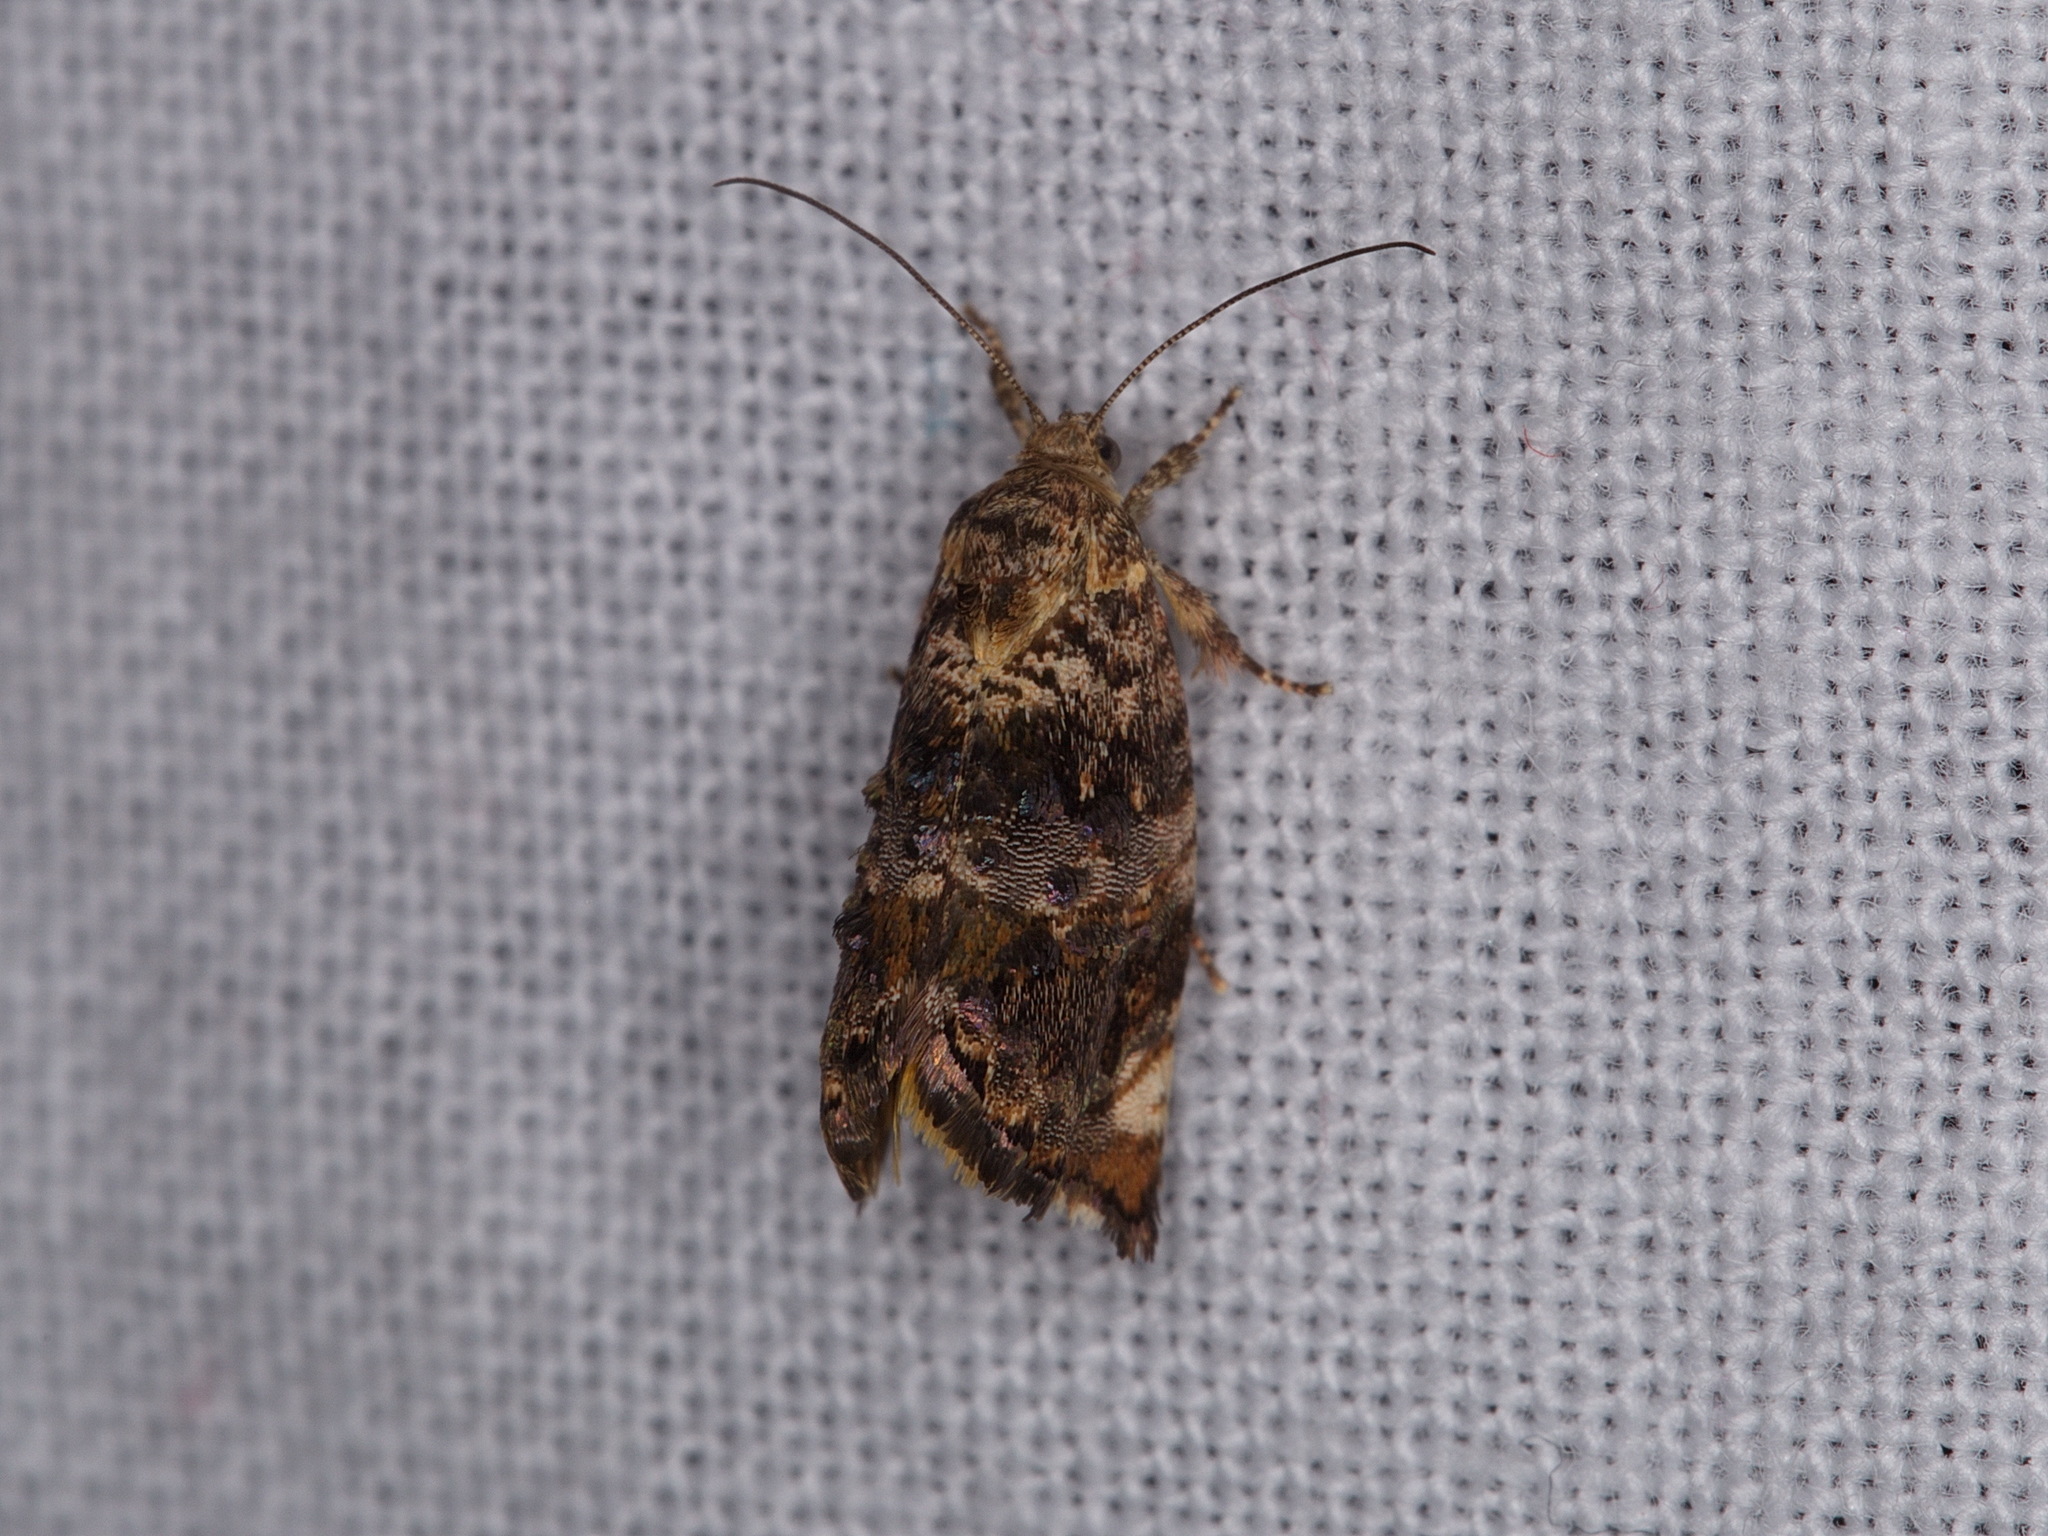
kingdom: Animalia
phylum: Arthropoda
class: Insecta
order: Lepidoptera
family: Depressariidae
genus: Hypertropha
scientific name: Hypertropha tortriciformis
